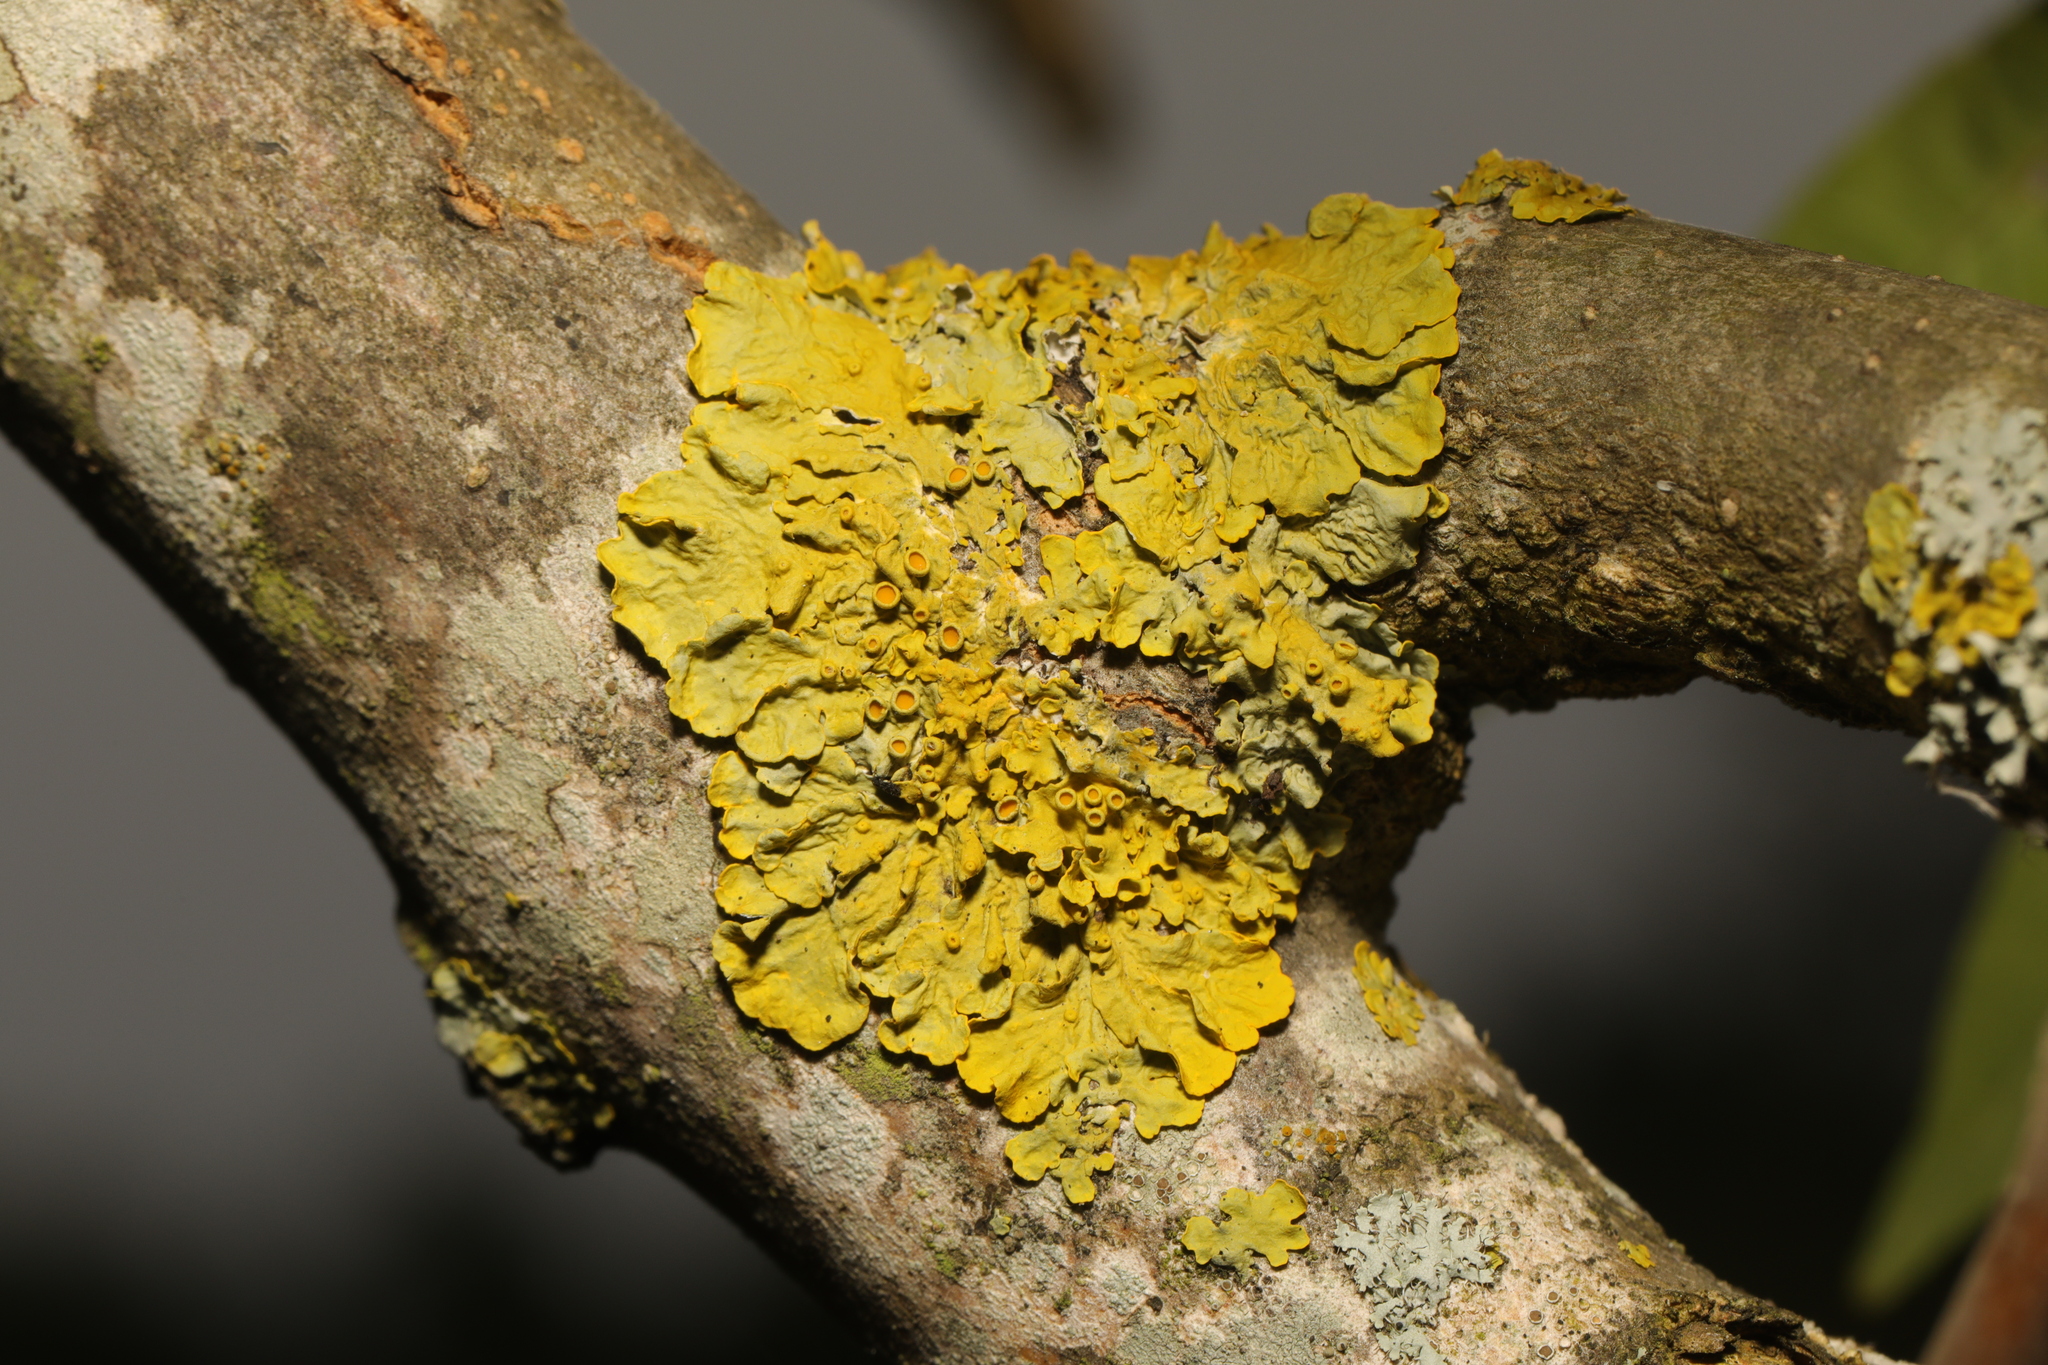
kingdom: Fungi
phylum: Ascomycota
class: Lecanoromycetes
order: Teloschistales
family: Teloschistaceae
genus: Xanthoria
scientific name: Xanthoria parietina
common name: Common orange lichen
